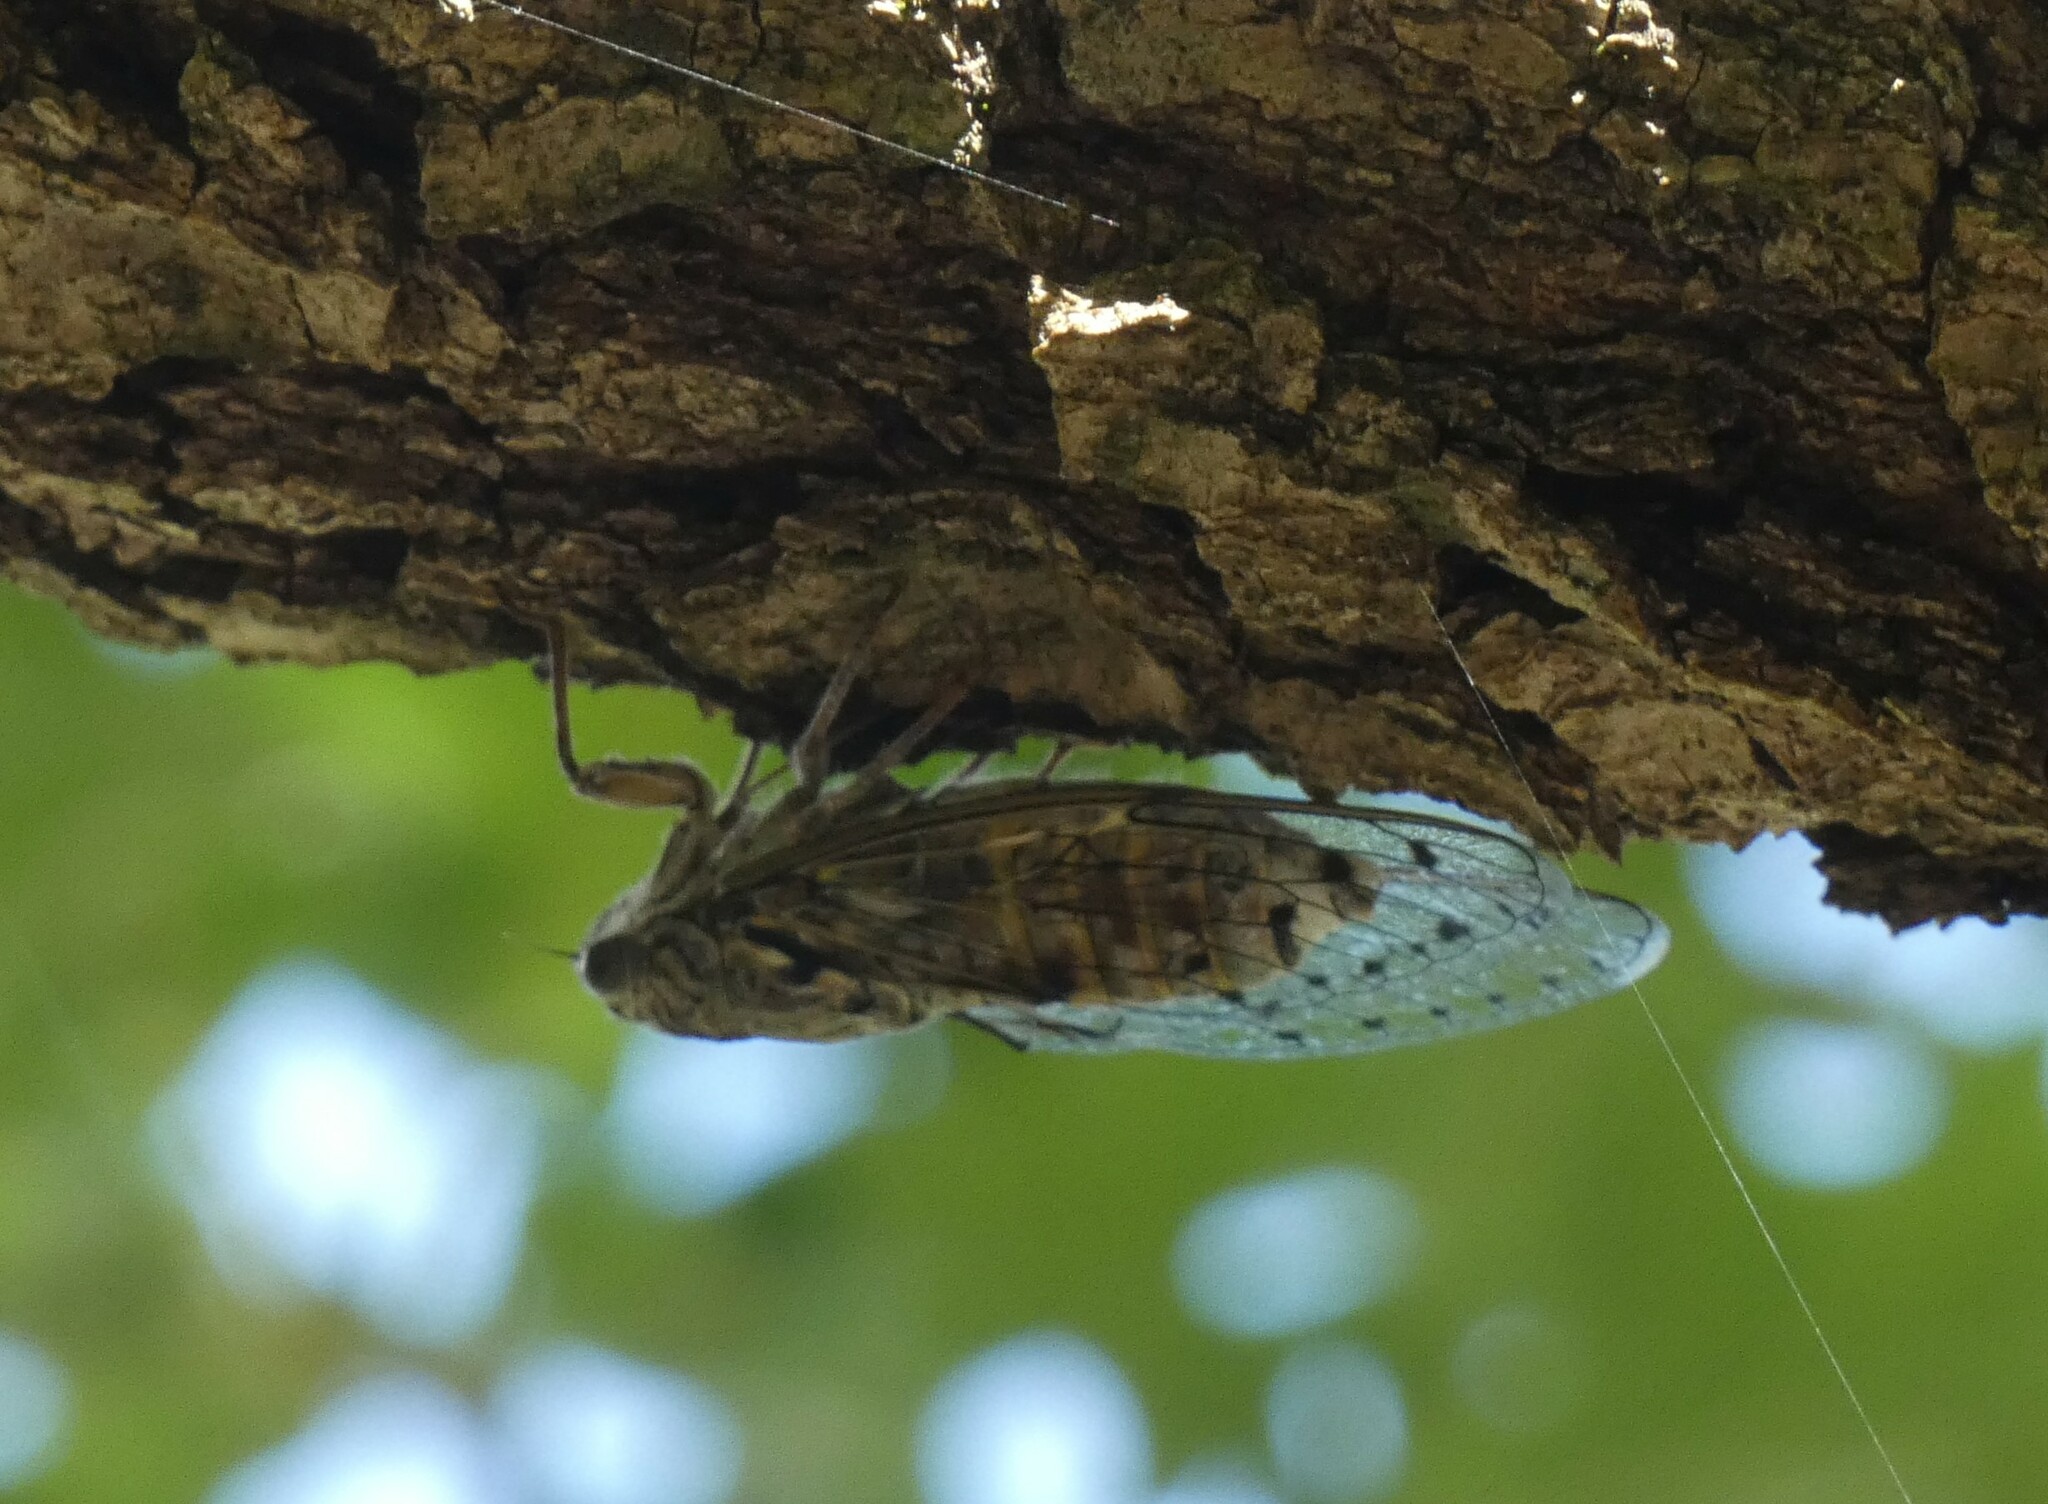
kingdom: Animalia
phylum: Arthropoda
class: Insecta
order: Hemiptera
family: Cicadidae
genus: Cicada
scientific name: Cicada orni
